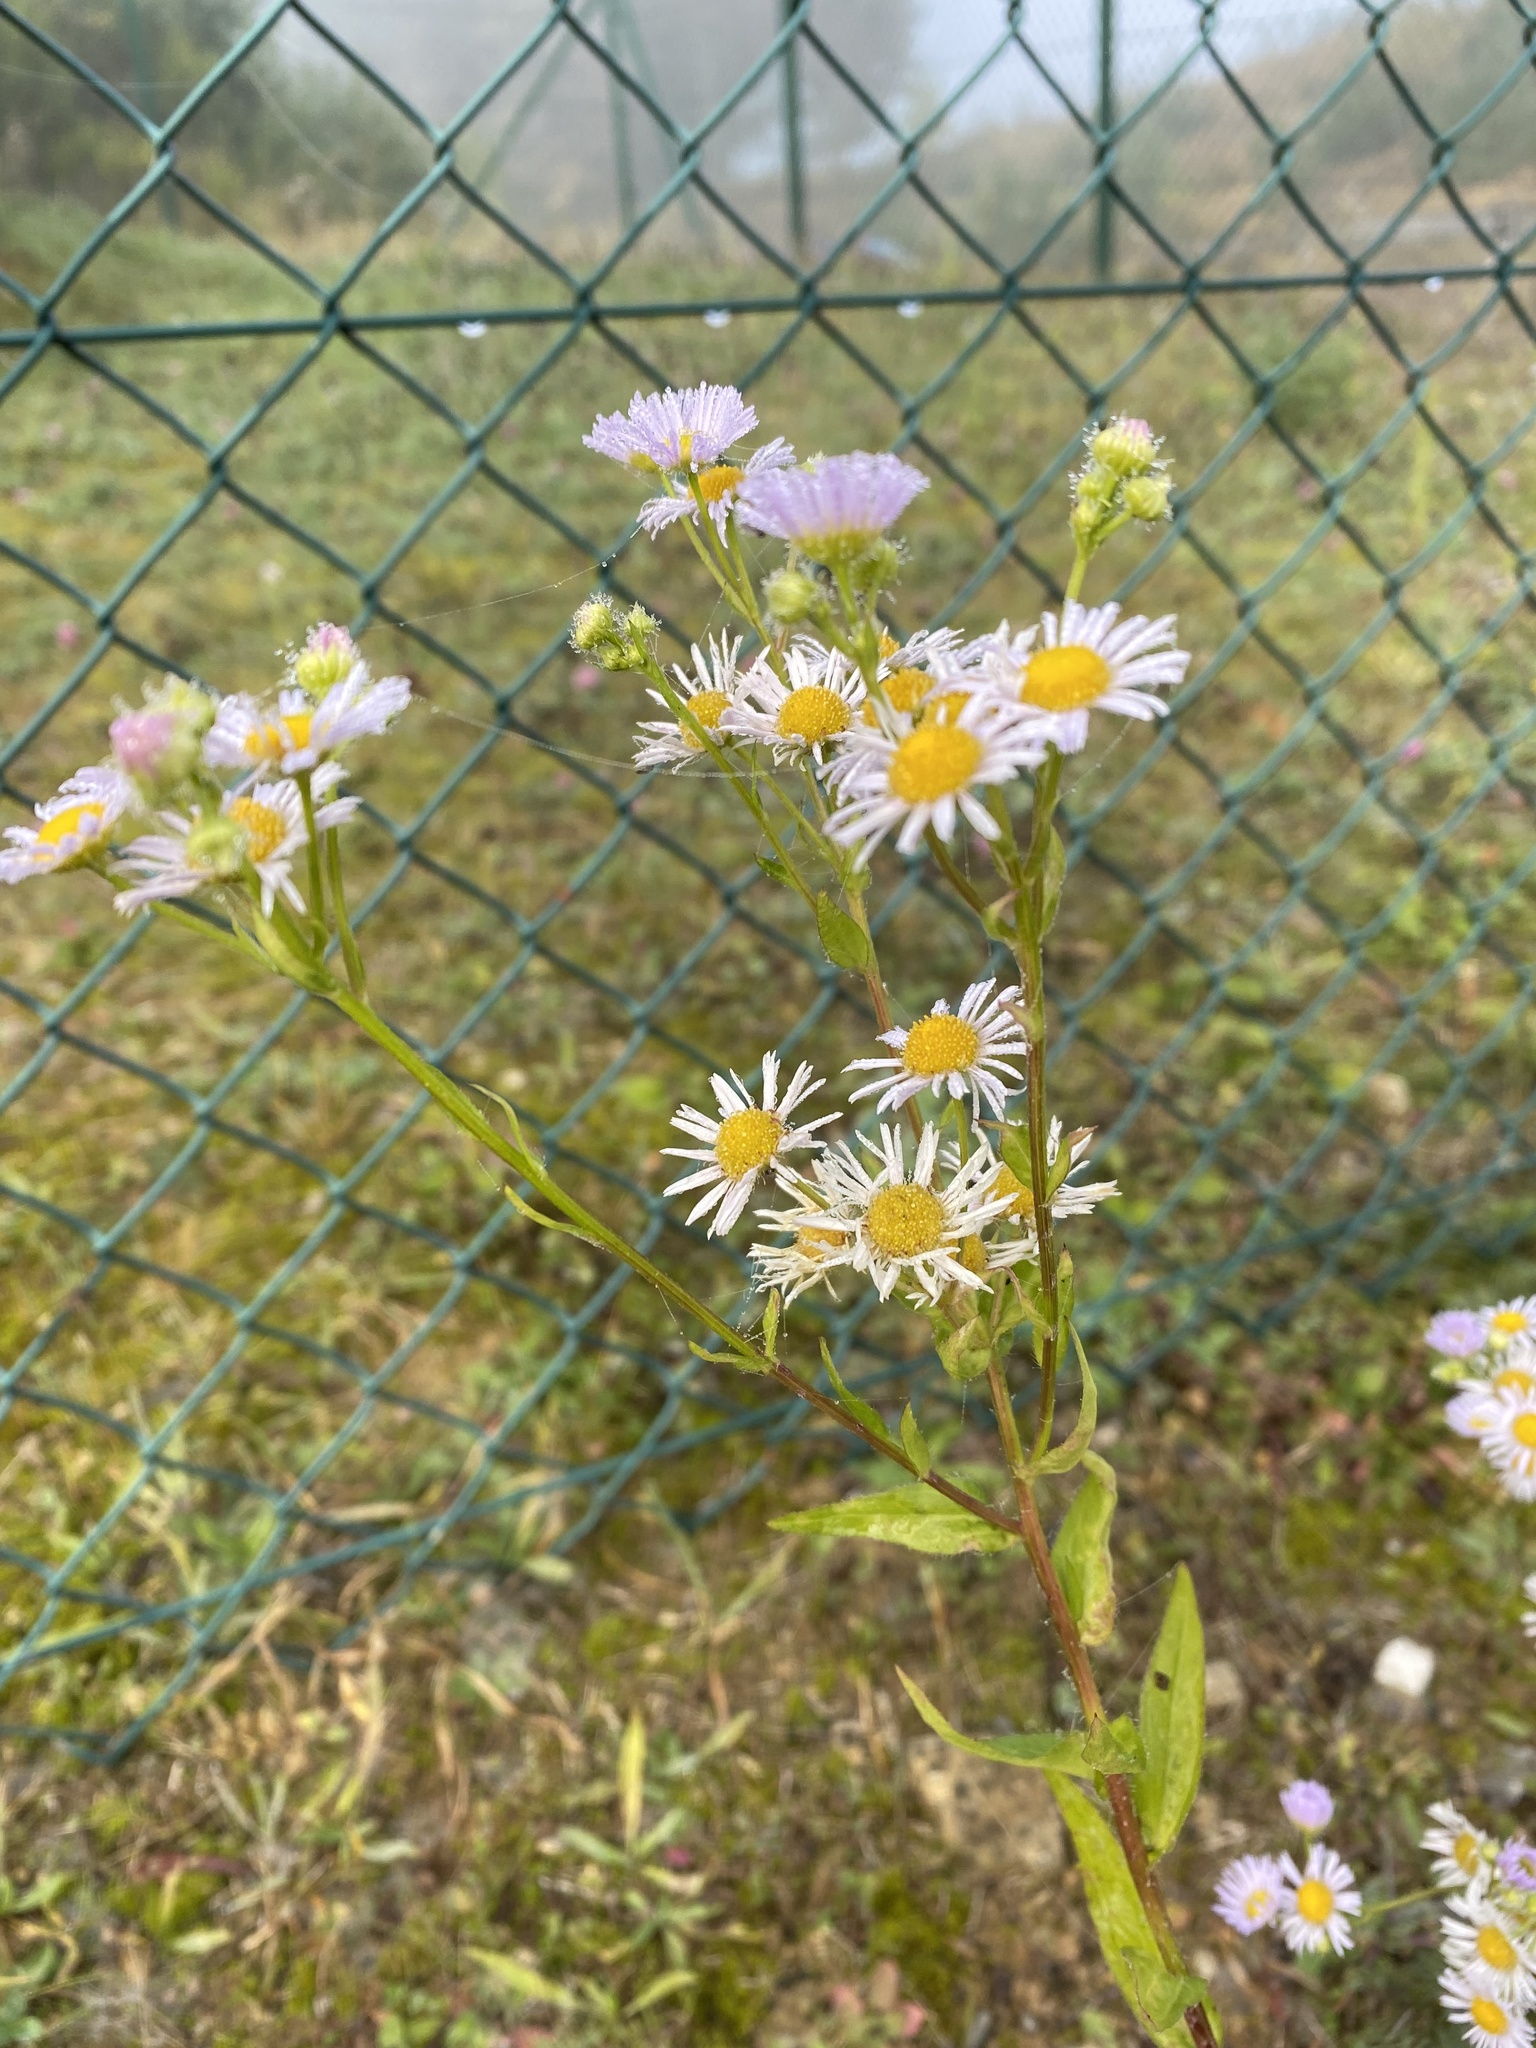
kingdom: Plantae
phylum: Tracheophyta
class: Magnoliopsida
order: Asterales
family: Asteraceae
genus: Erigeron
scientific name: Erigeron annuus
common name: Tall fleabane
